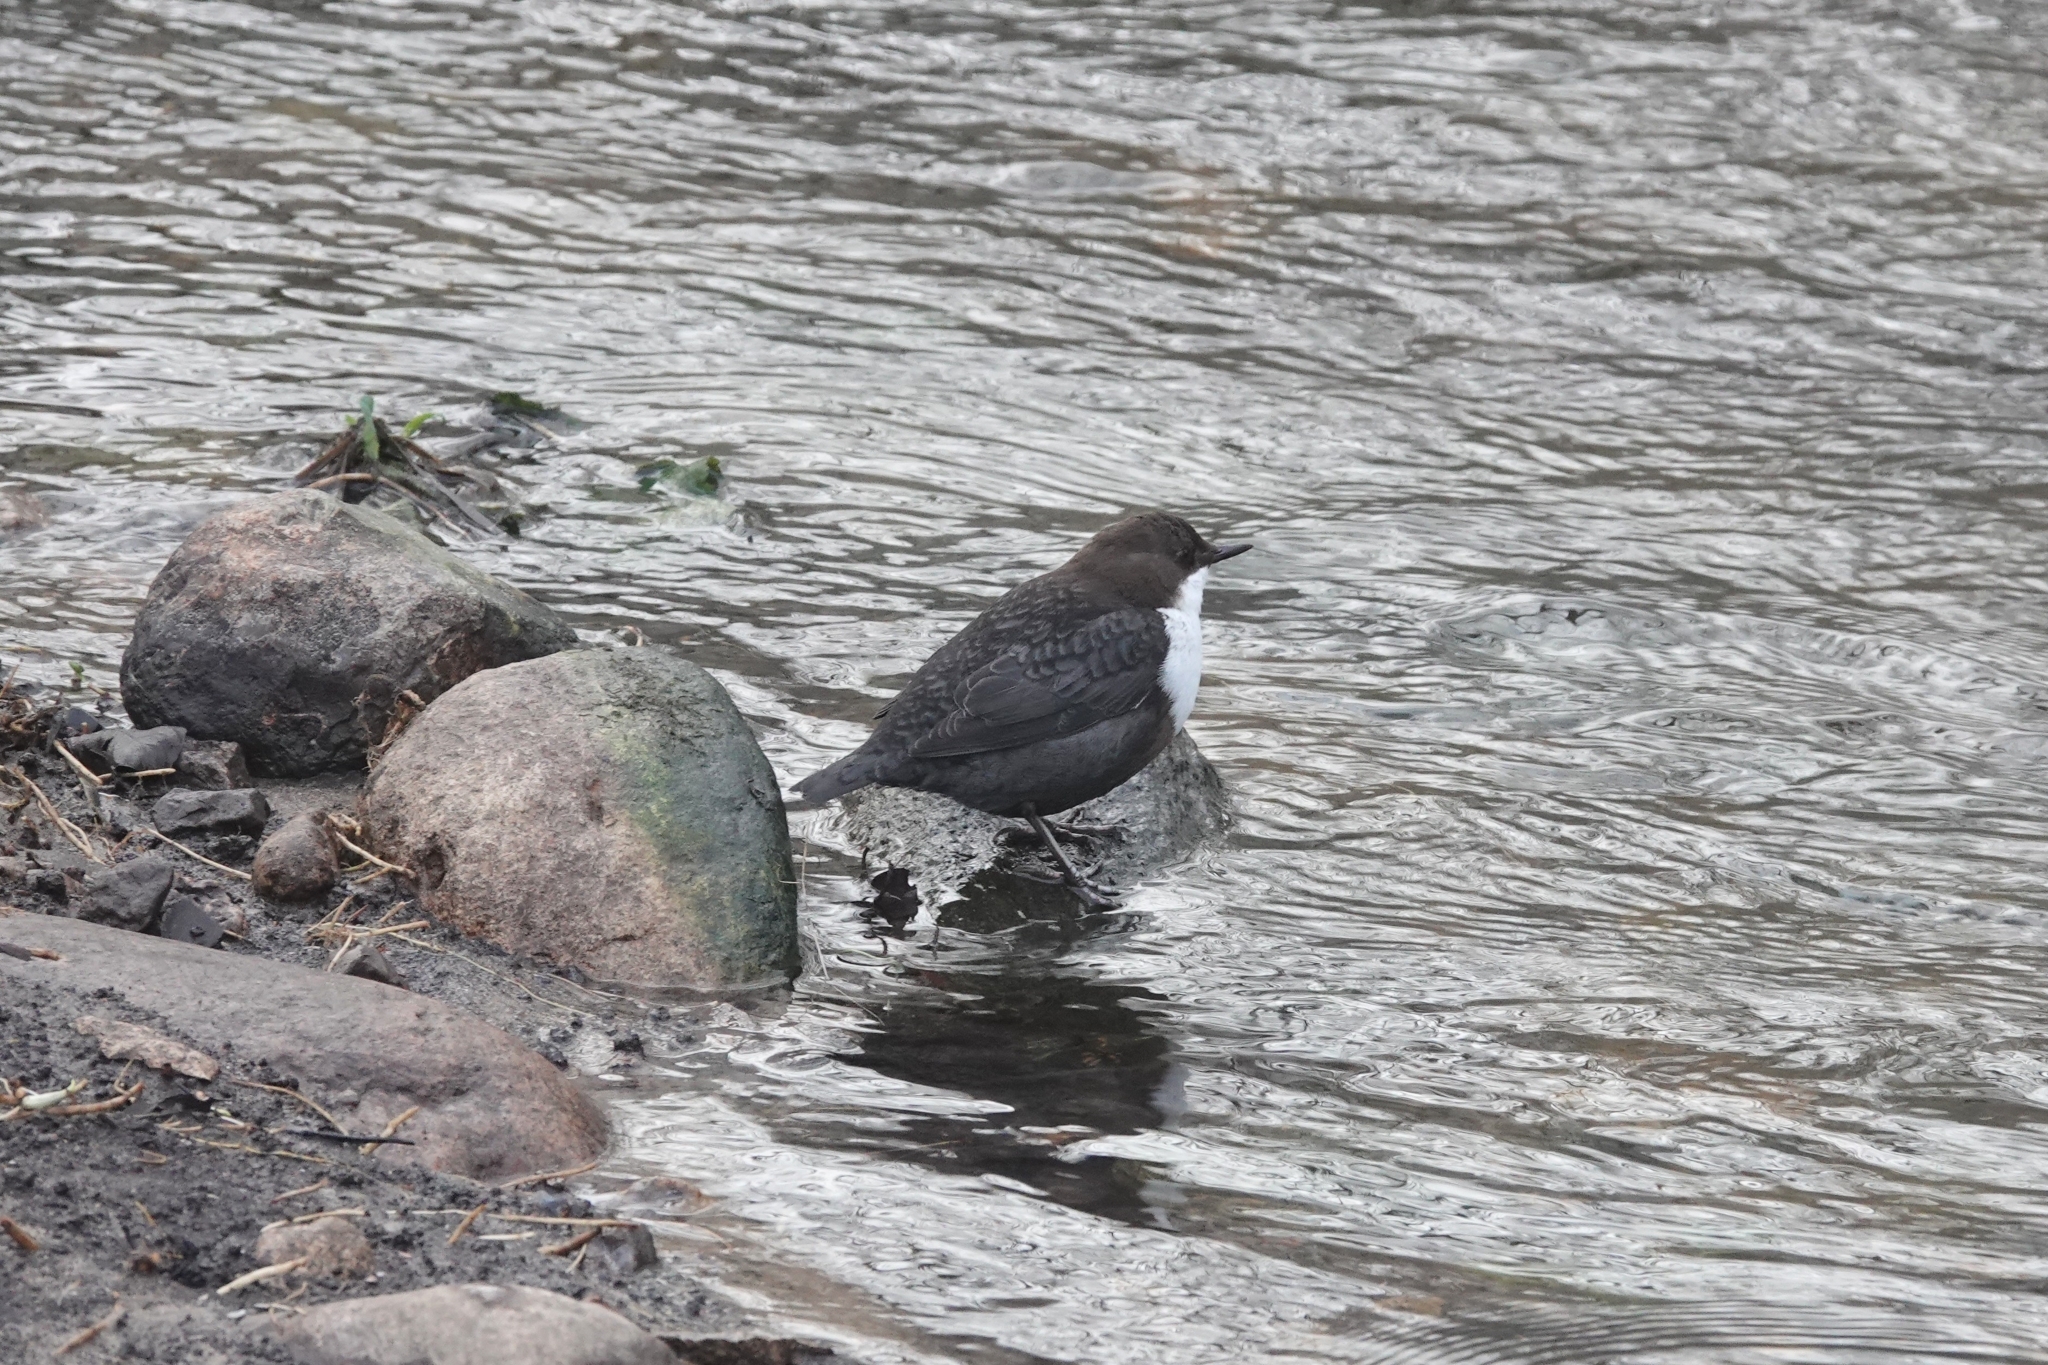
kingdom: Animalia
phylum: Chordata
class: Aves
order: Passeriformes
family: Cinclidae
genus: Cinclus
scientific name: Cinclus cinclus
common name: White-throated dipper
